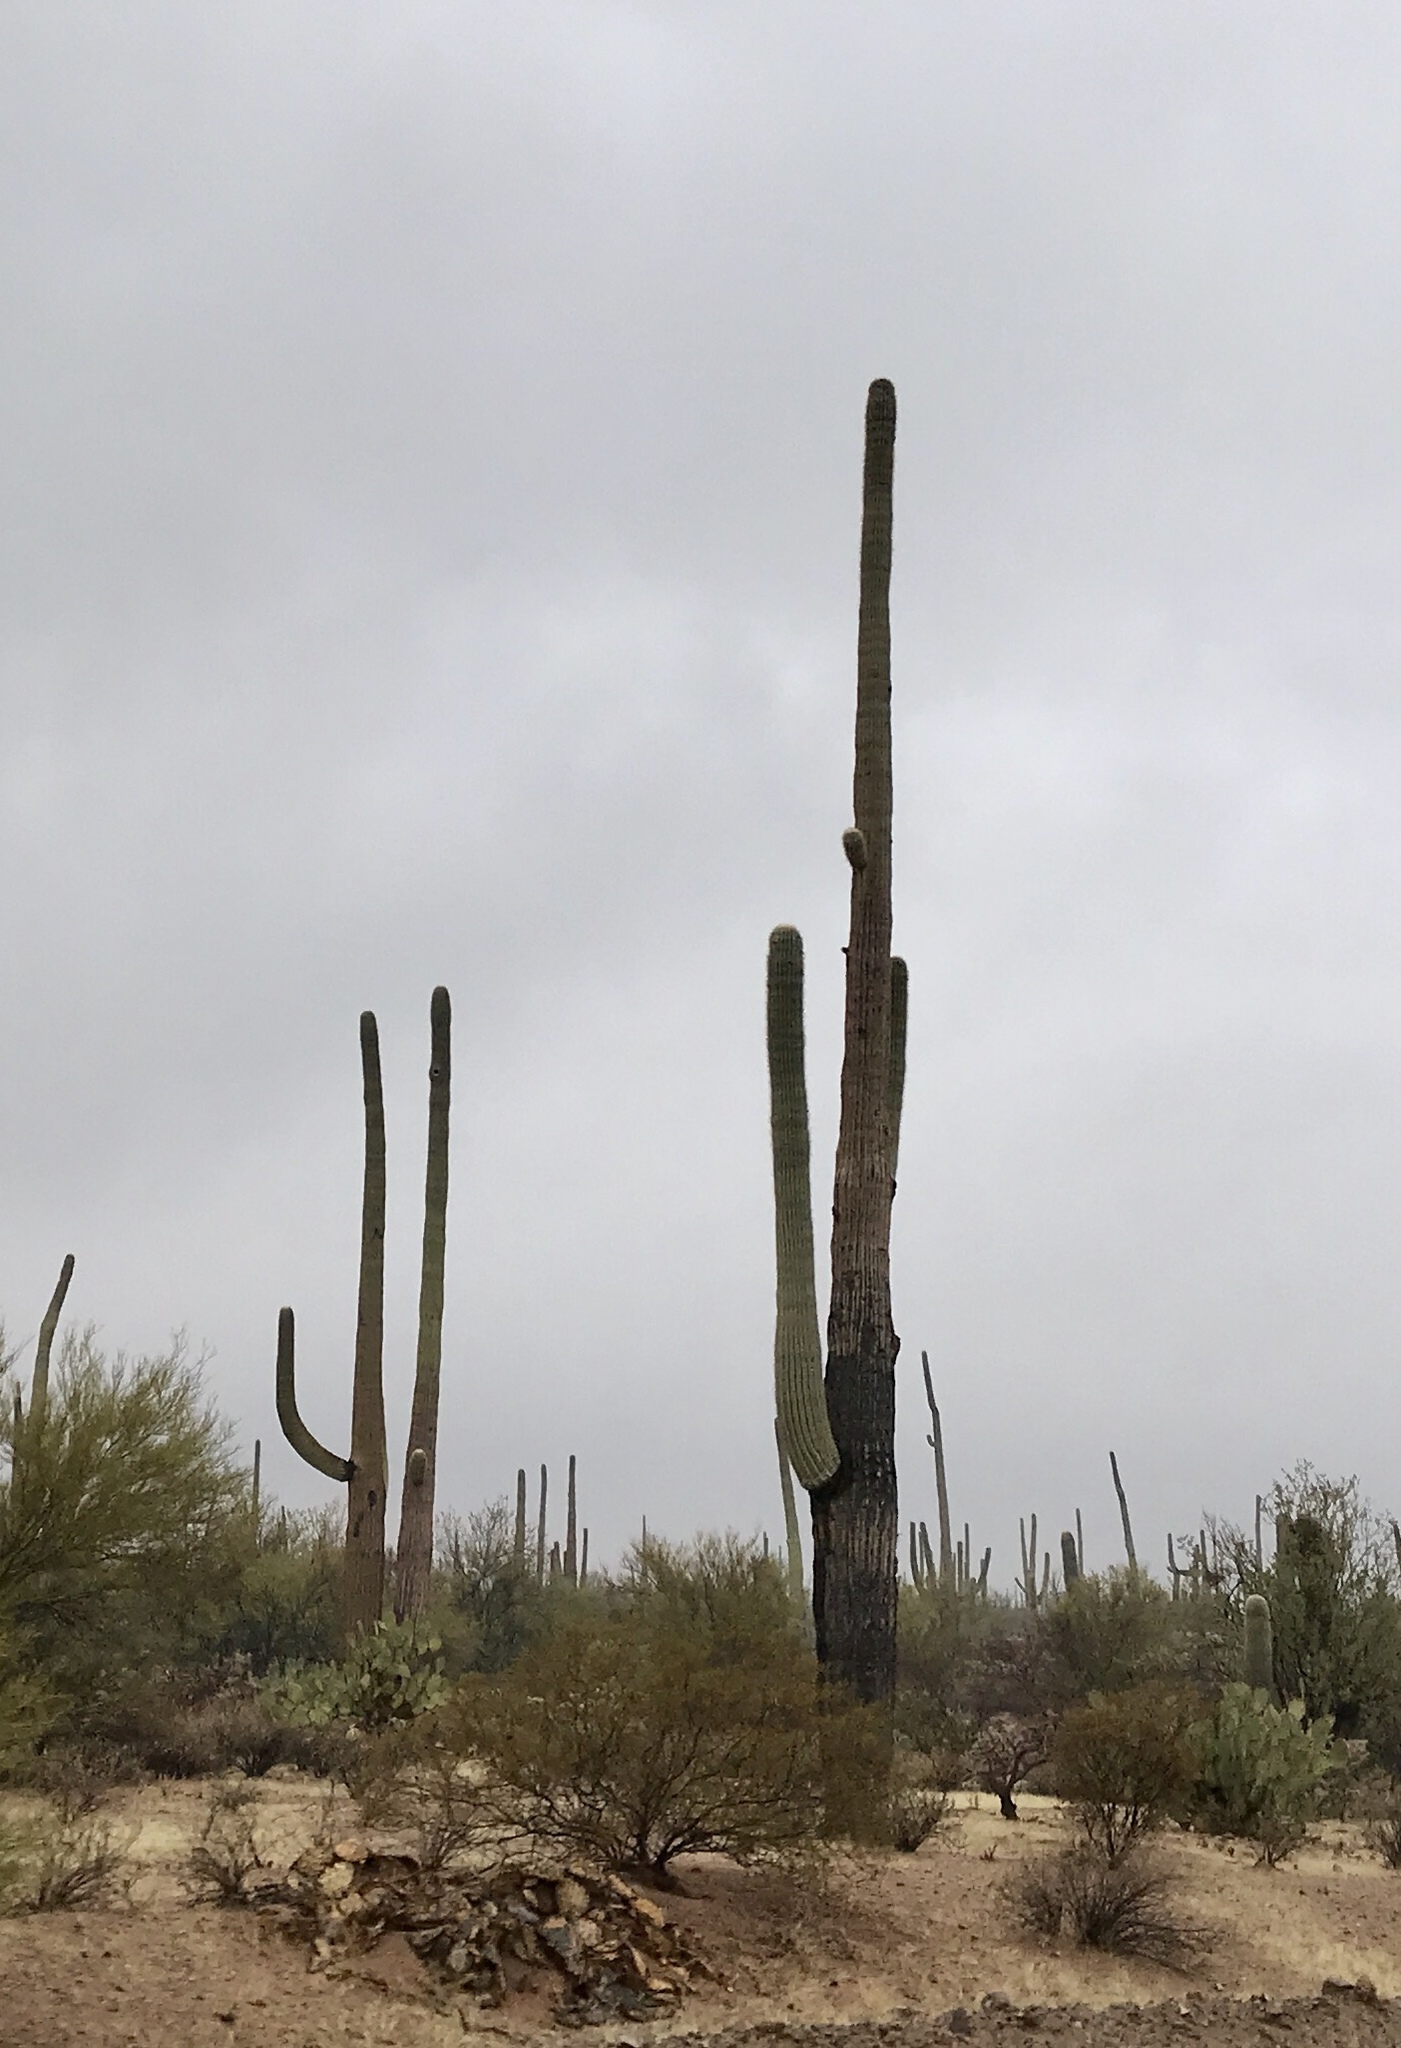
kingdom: Plantae
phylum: Tracheophyta
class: Magnoliopsida
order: Caryophyllales
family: Cactaceae
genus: Carnegiea
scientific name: Carnegiea gigantea
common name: Saguaro
